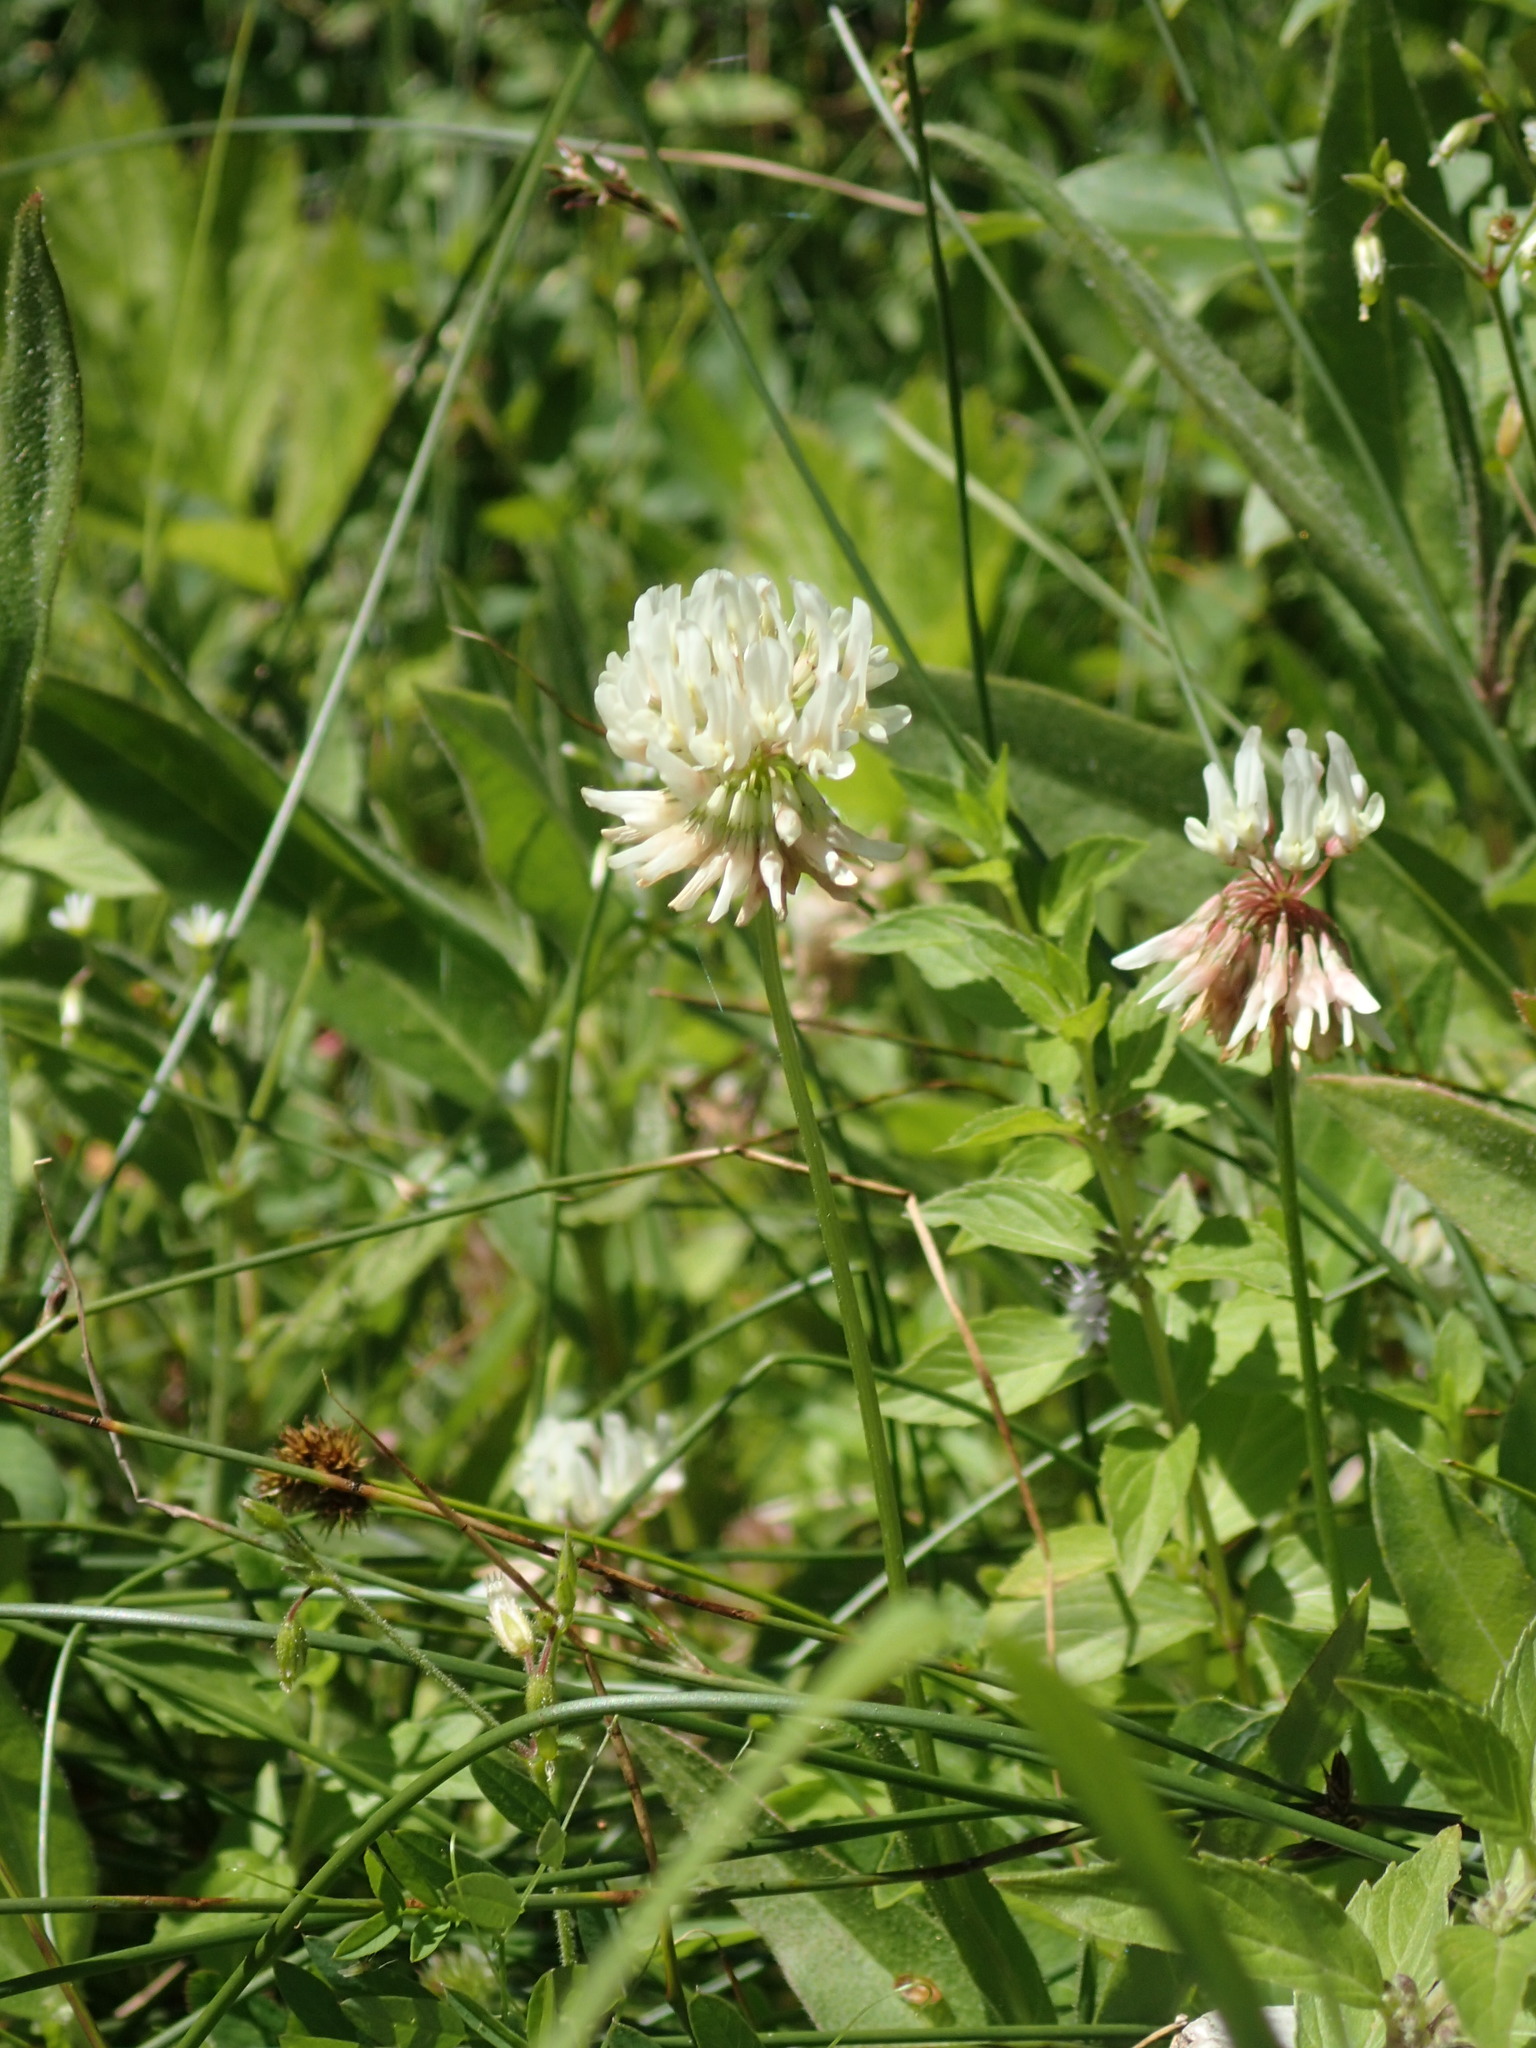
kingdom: Plantae
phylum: Tracheophyta
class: Magnoliopsida
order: Fabales
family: Fabaceae
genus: Trifolium
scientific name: Trifolium repens
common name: White clover
